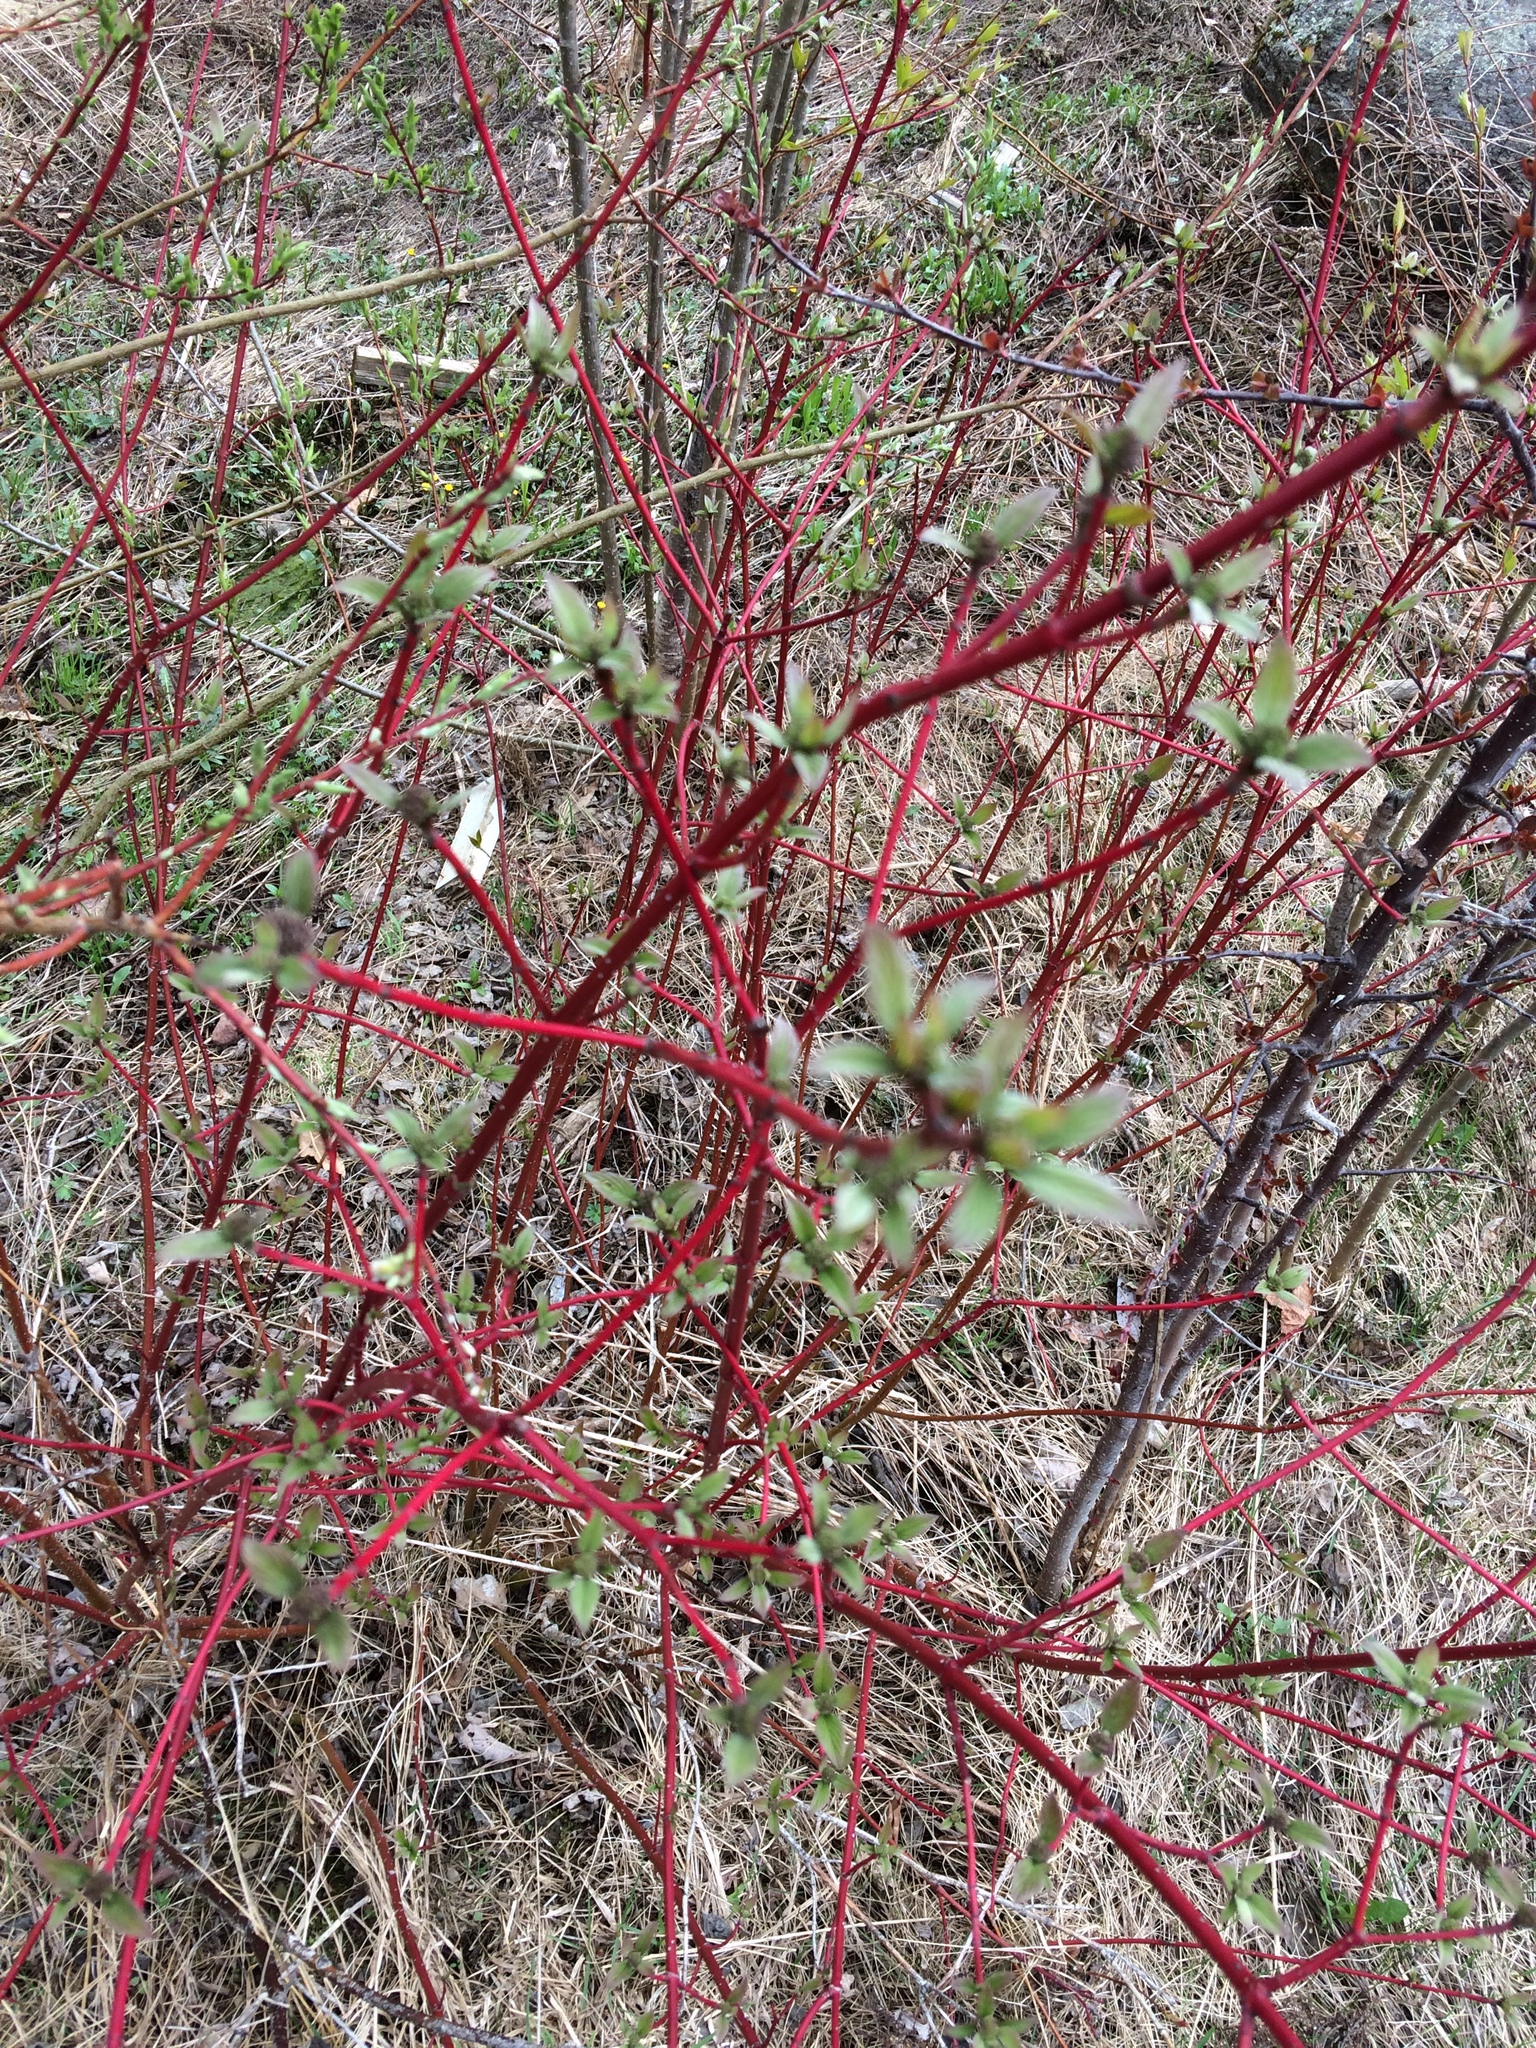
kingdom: Plantae
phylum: Tracheophyta
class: Magnoliopsida
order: Cornales
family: Cornaceae
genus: Cornus
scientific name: Cornus sericea
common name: Red-osier dogwood
